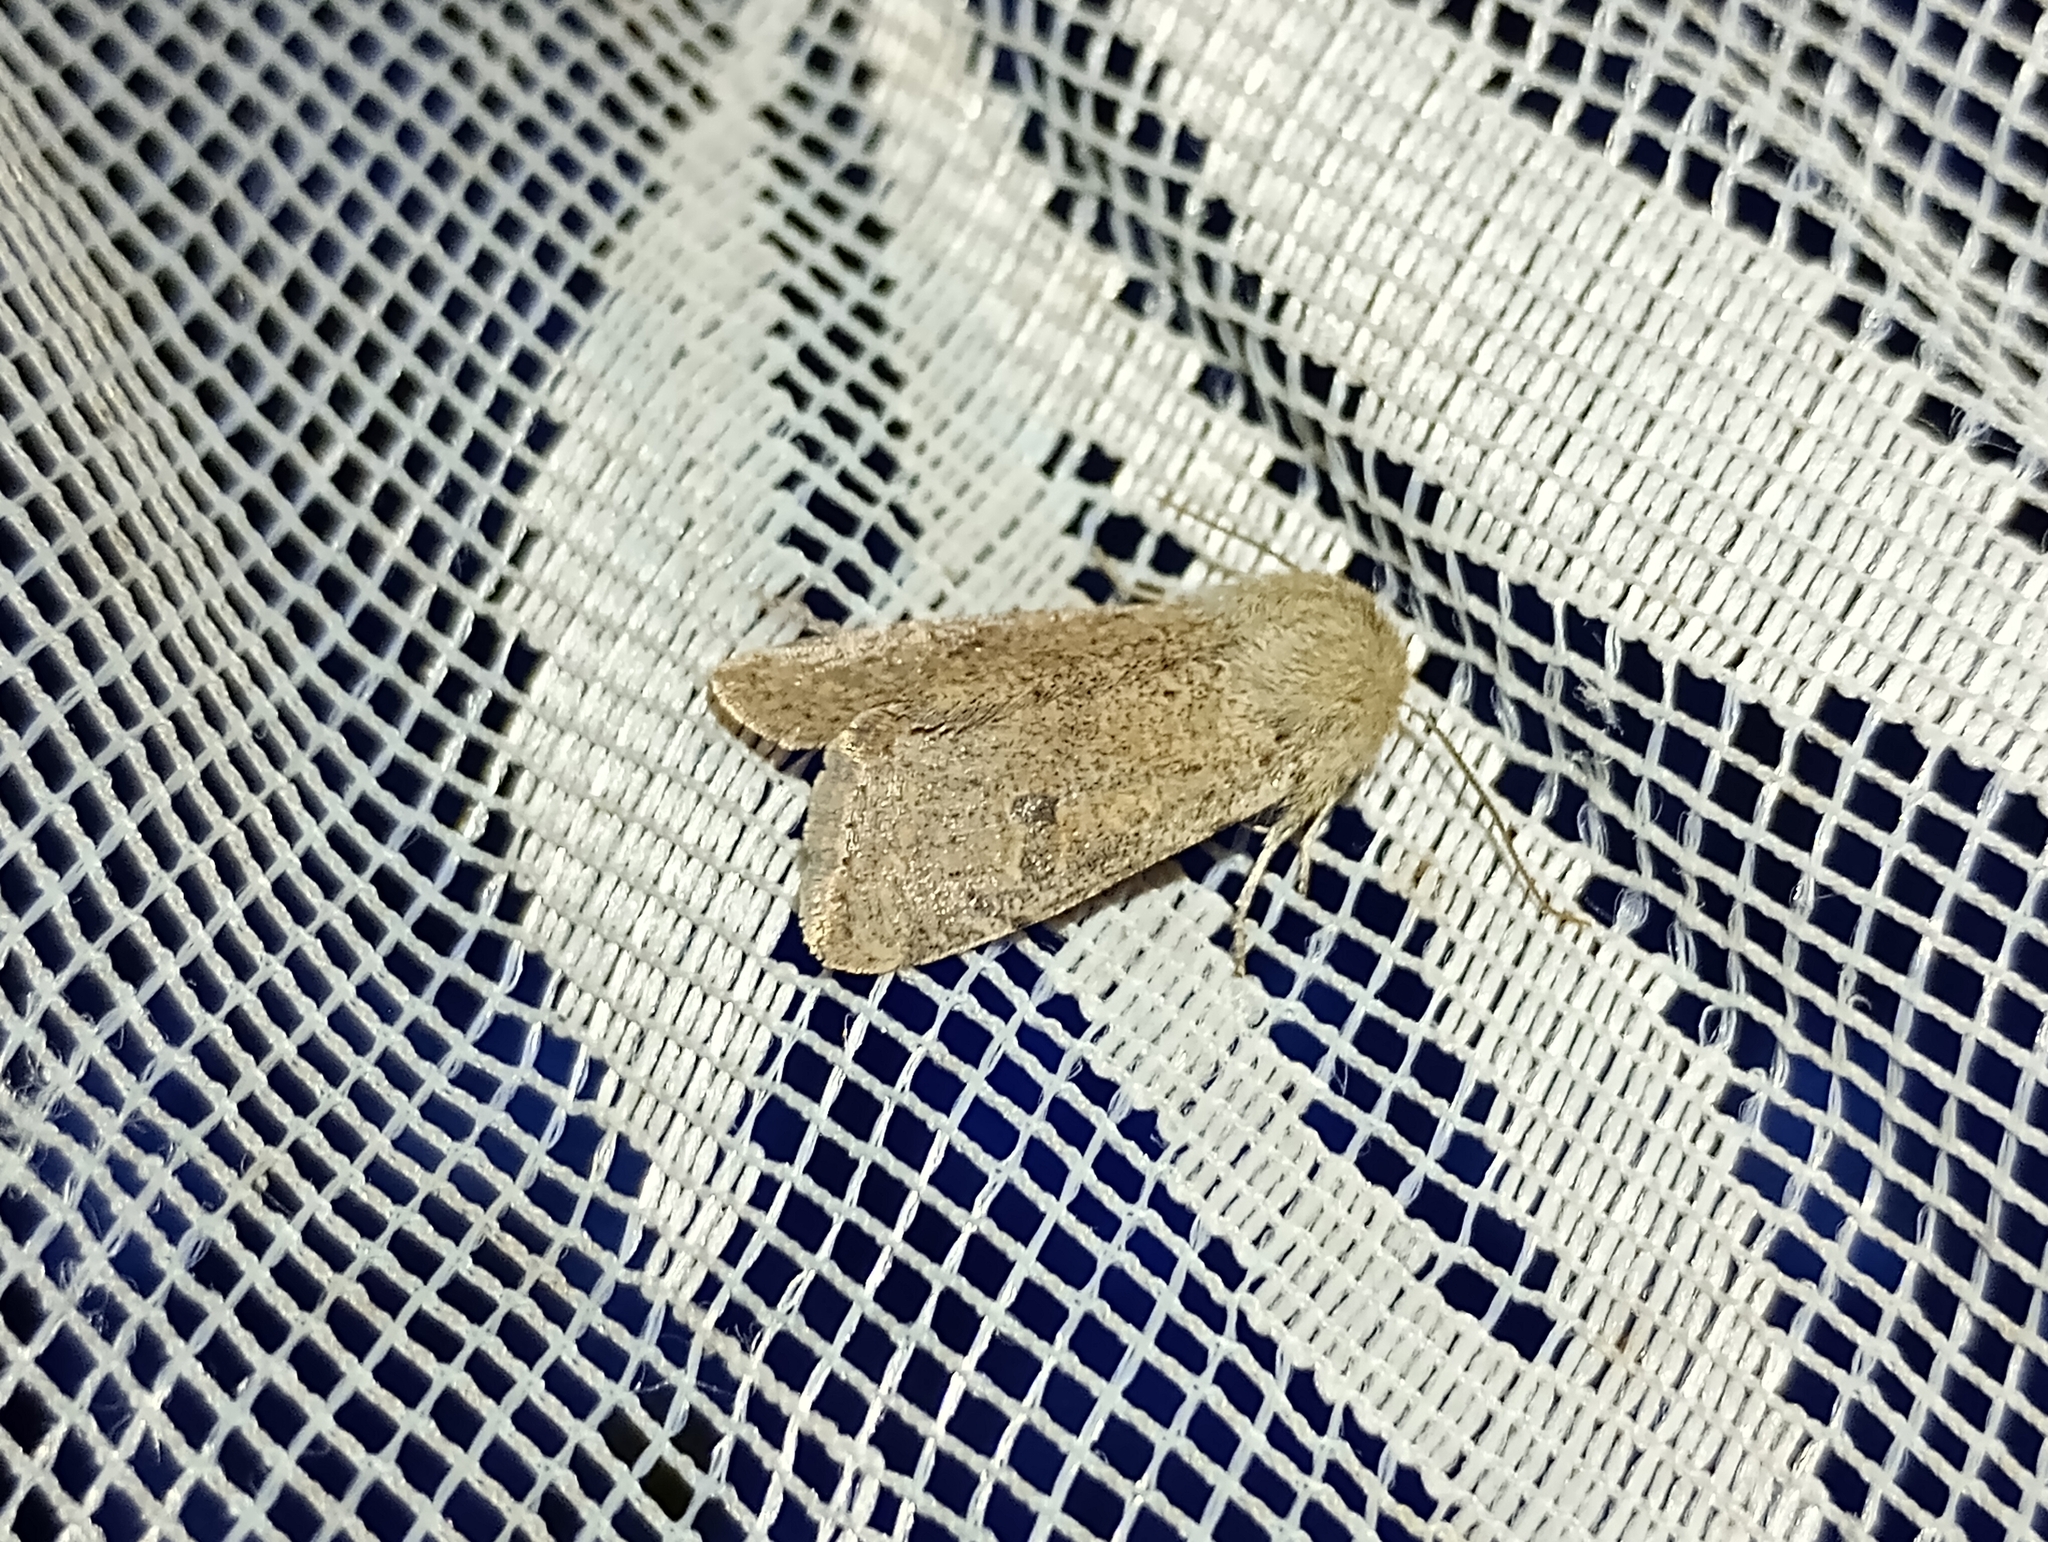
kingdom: Animalia
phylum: Arthropoda
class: Insecta
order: Lepidoptera
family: Noctuidae
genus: Orthosia
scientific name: Orthosia cruda
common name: Small quaker
